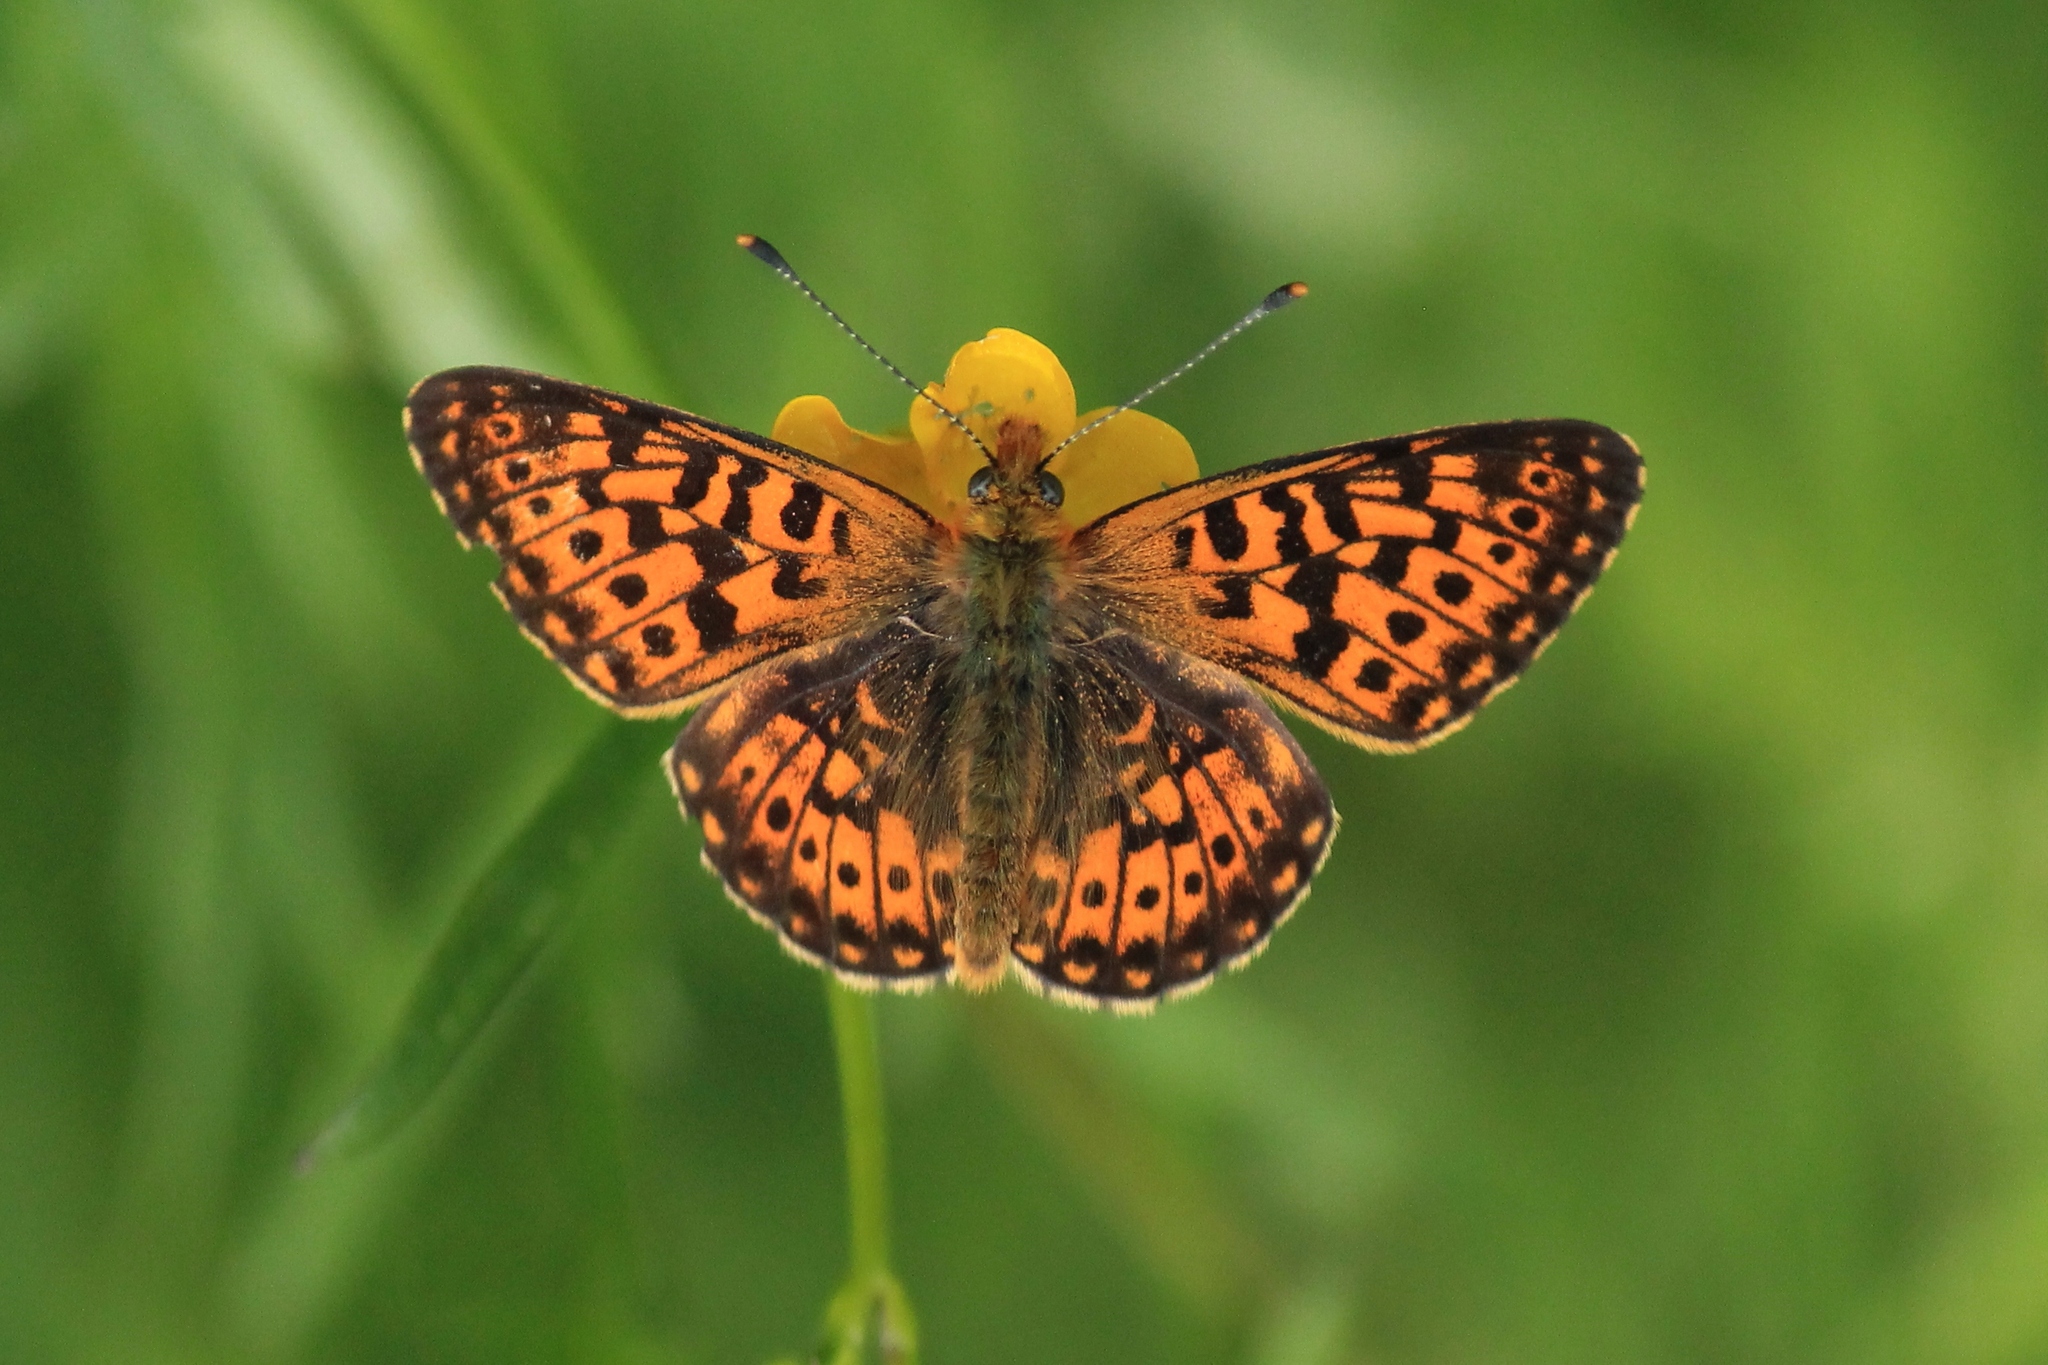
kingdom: Animalia
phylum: Arthropoda
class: Insecta
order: Lepidoptera
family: Nymphalidae
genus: Clossiana
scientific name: Clossiana euphrosyne
